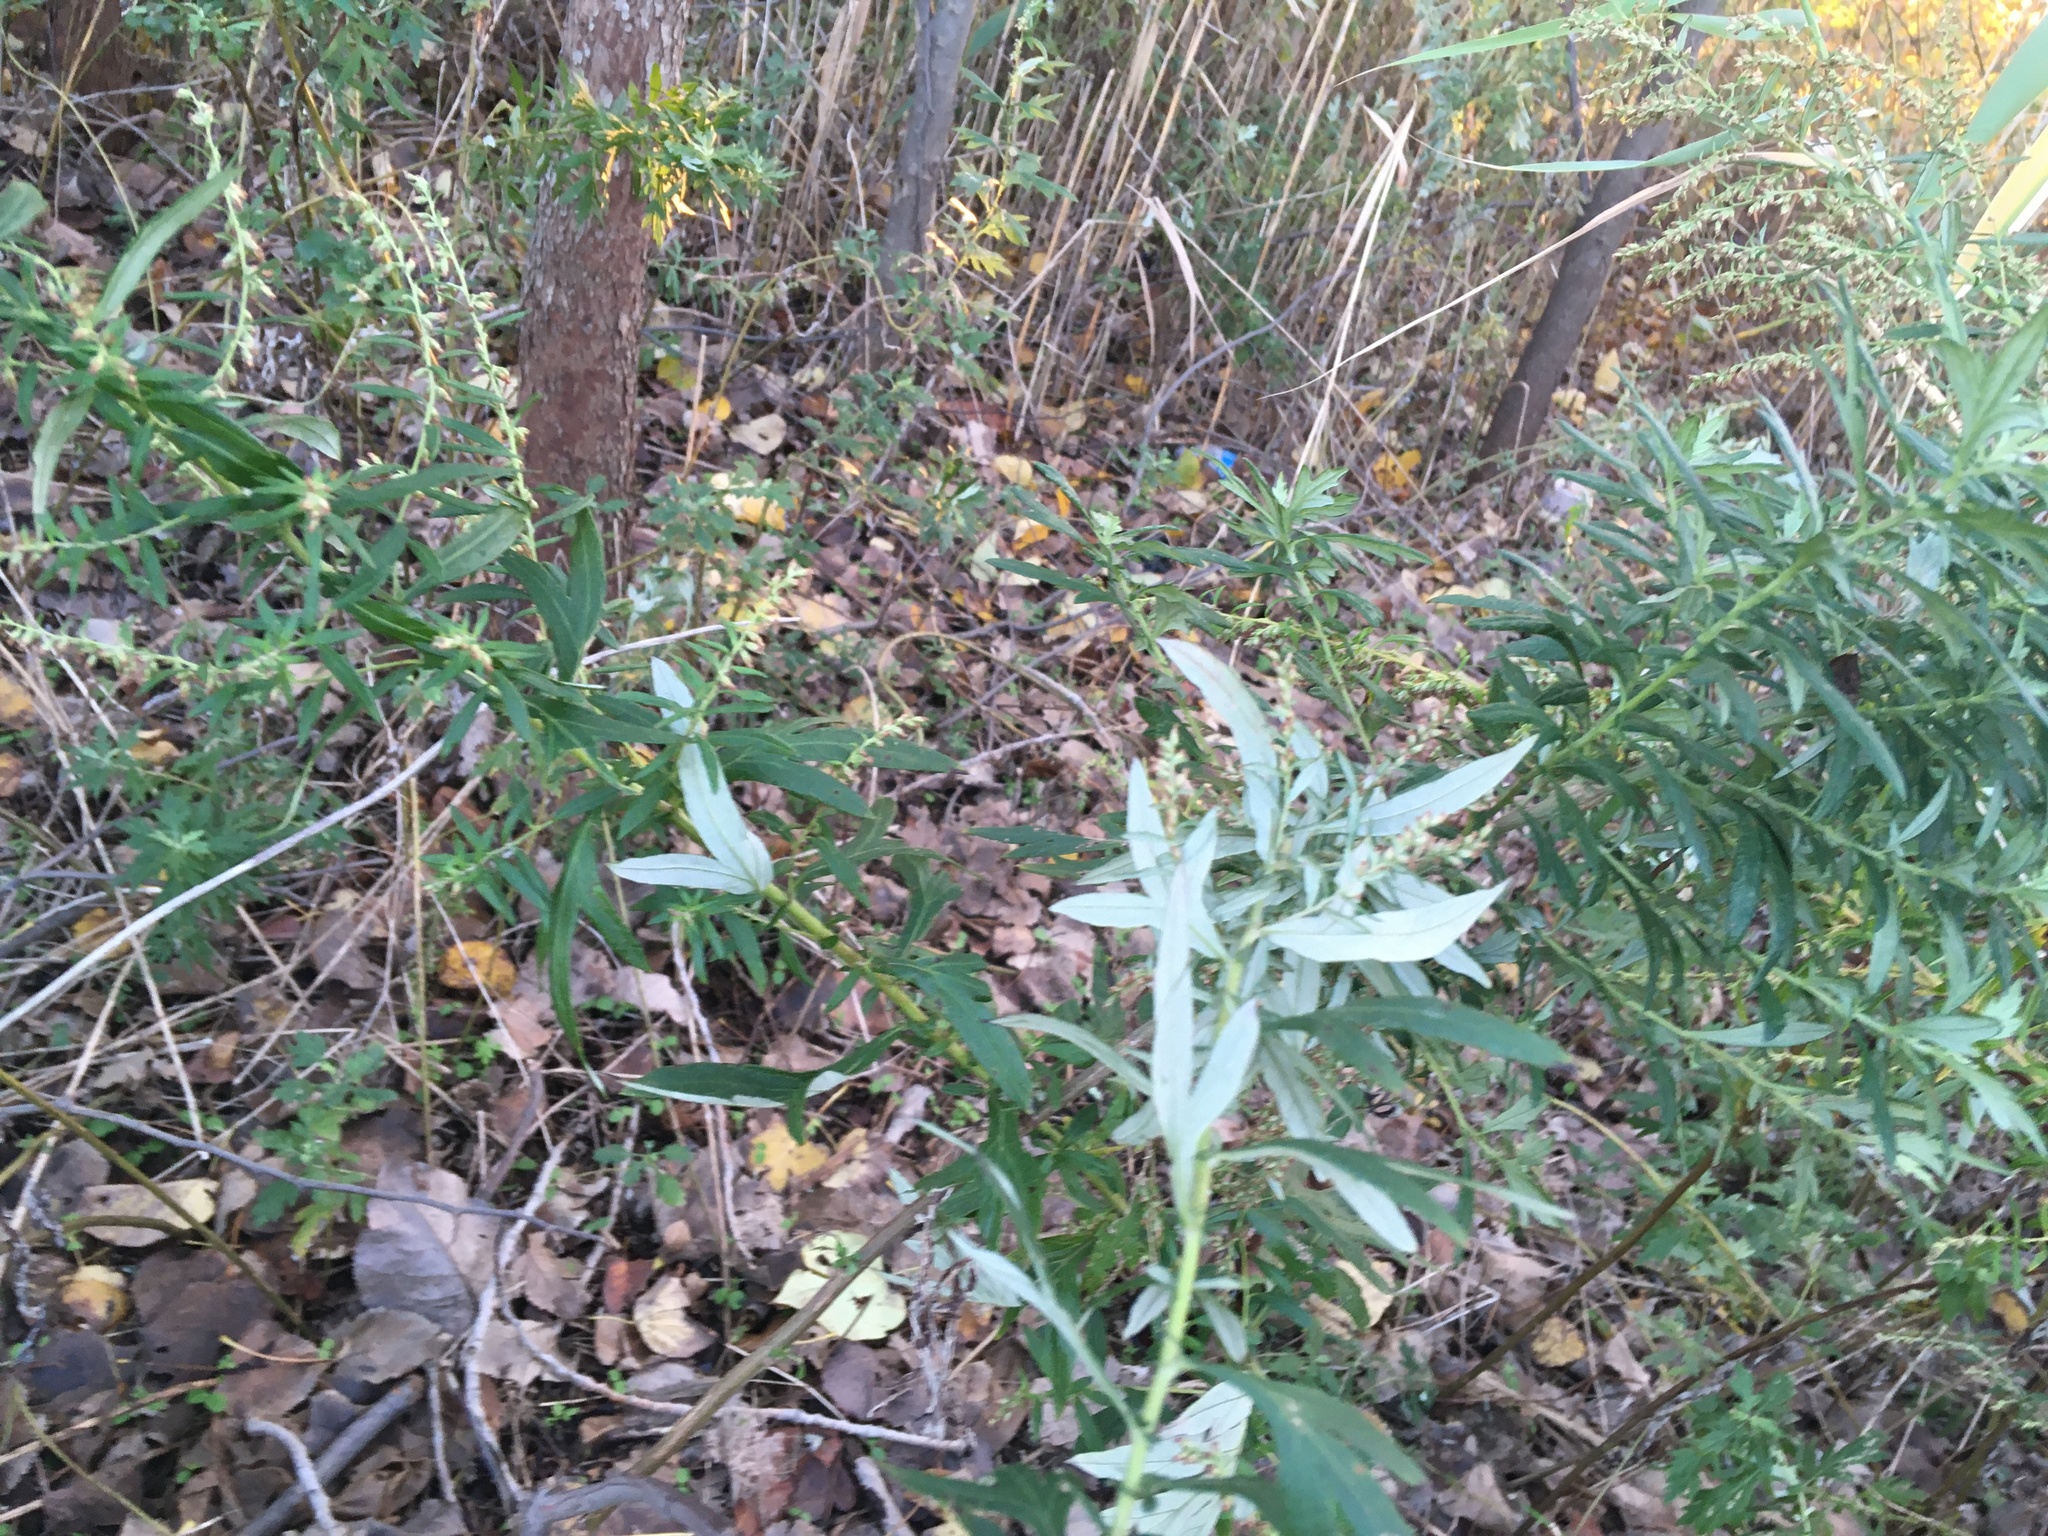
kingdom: Plantae
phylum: Tracheophyta
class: Magnoliopsida
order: Asterales
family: Asteraceae
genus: Artemisia
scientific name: Artemisia vulgaris
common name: Mugwort
